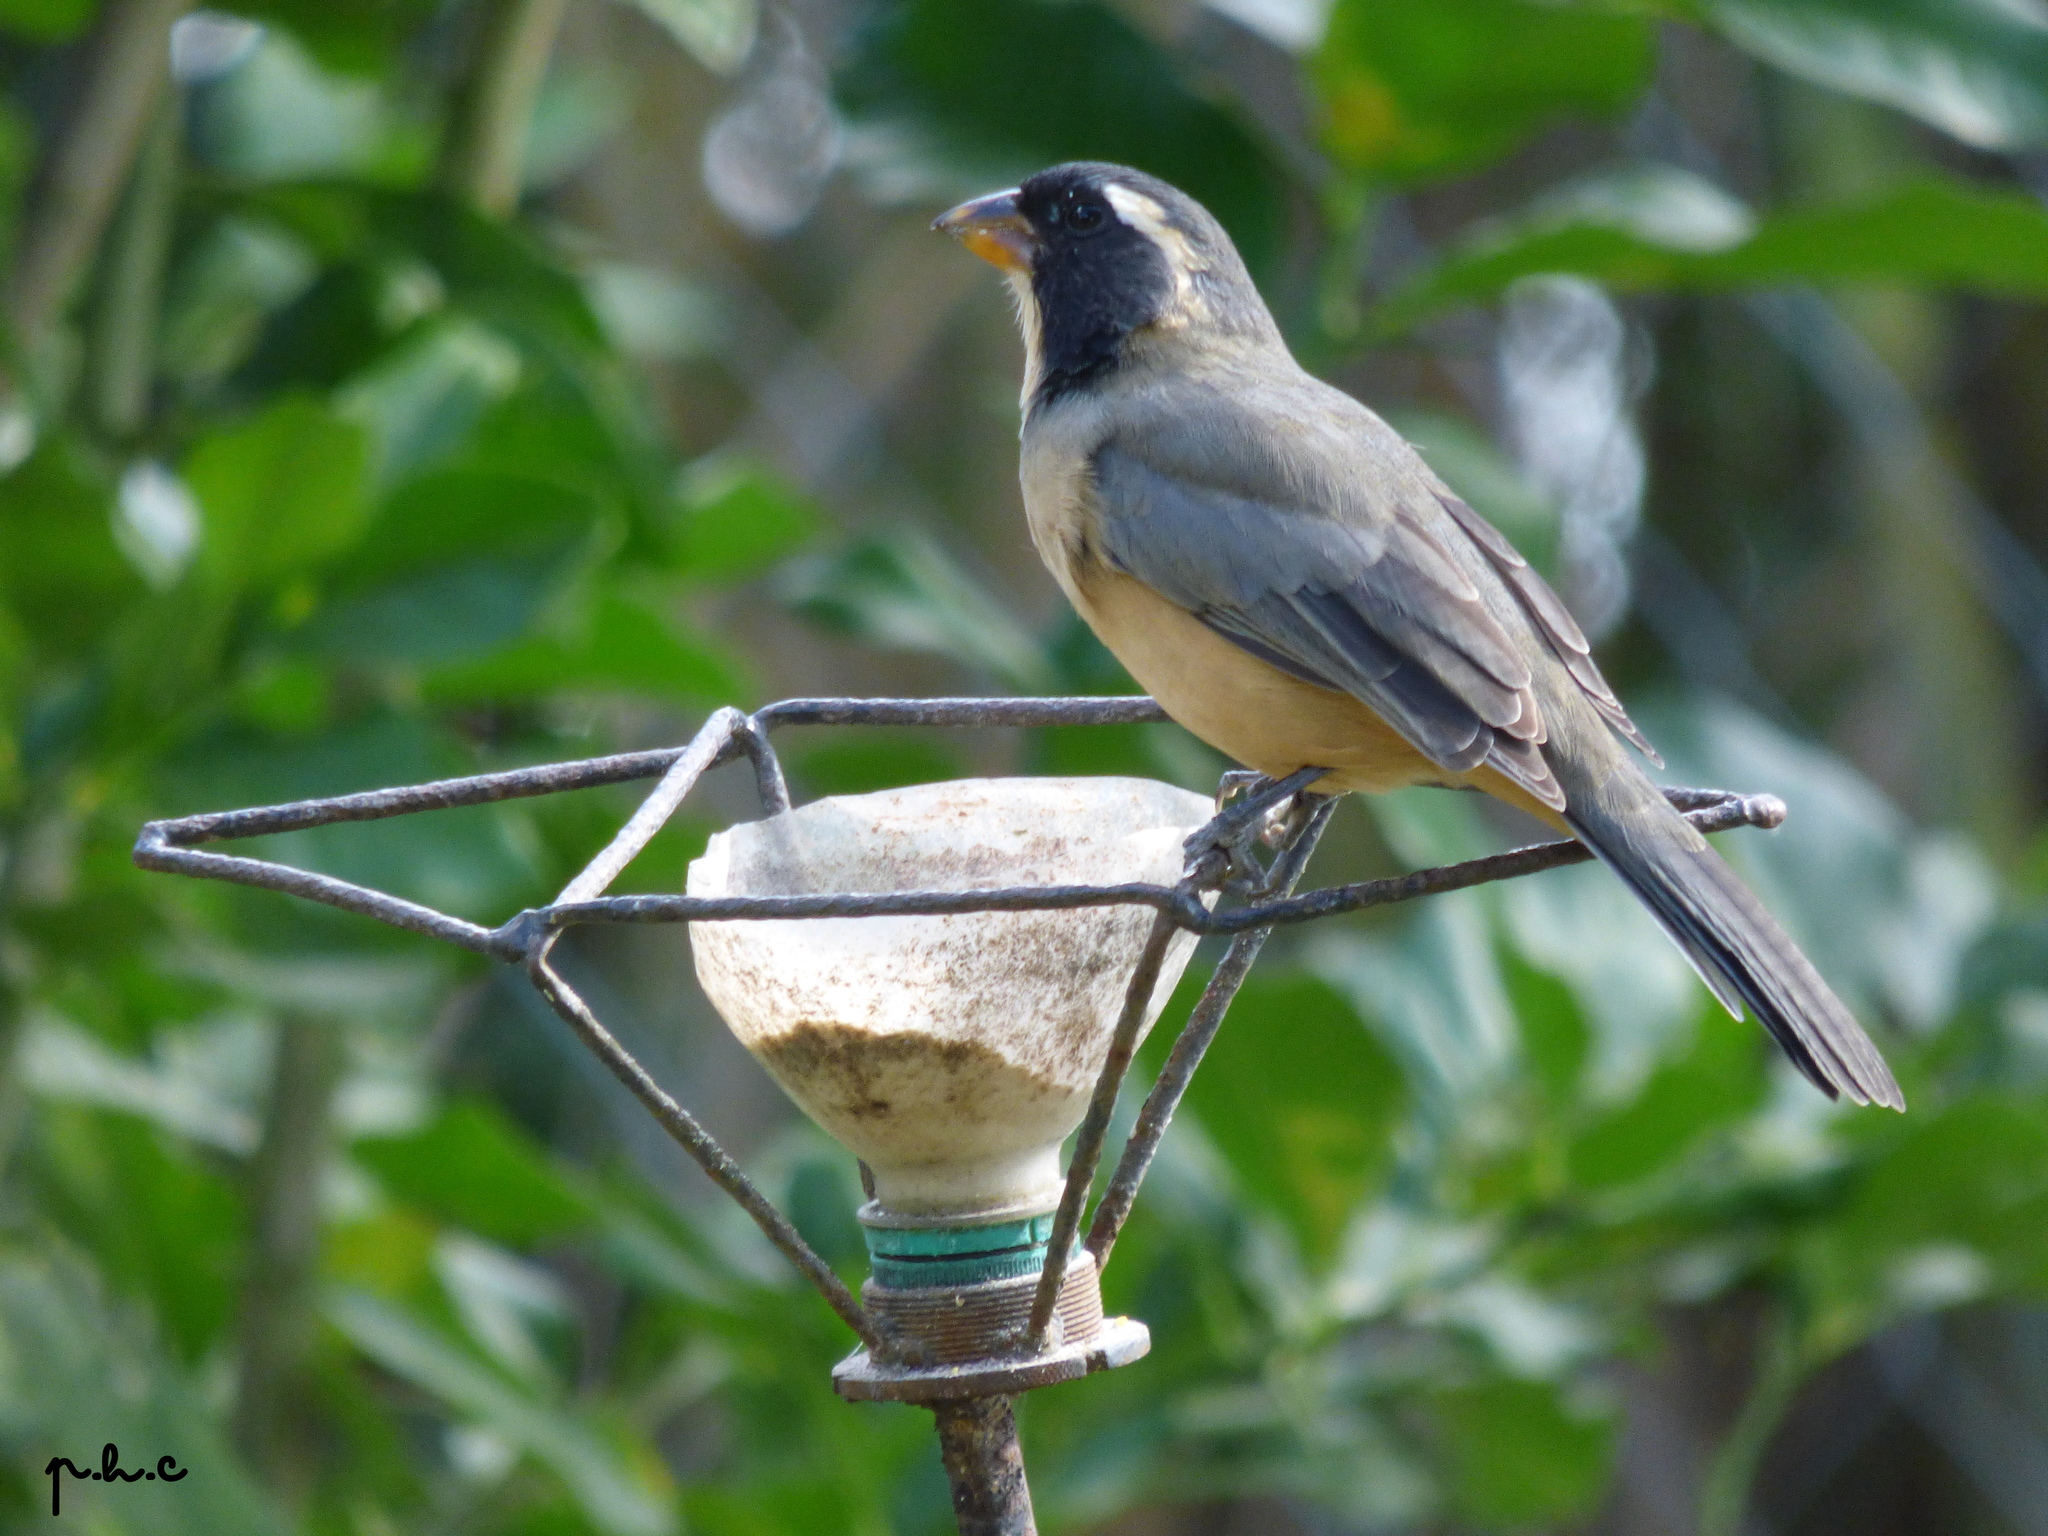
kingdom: Animalia
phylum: Chordata
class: Aves
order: Passeriformes
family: Thraupidae
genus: Saltator
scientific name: Saltator aurantiirostris
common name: Golden-billed saltator
